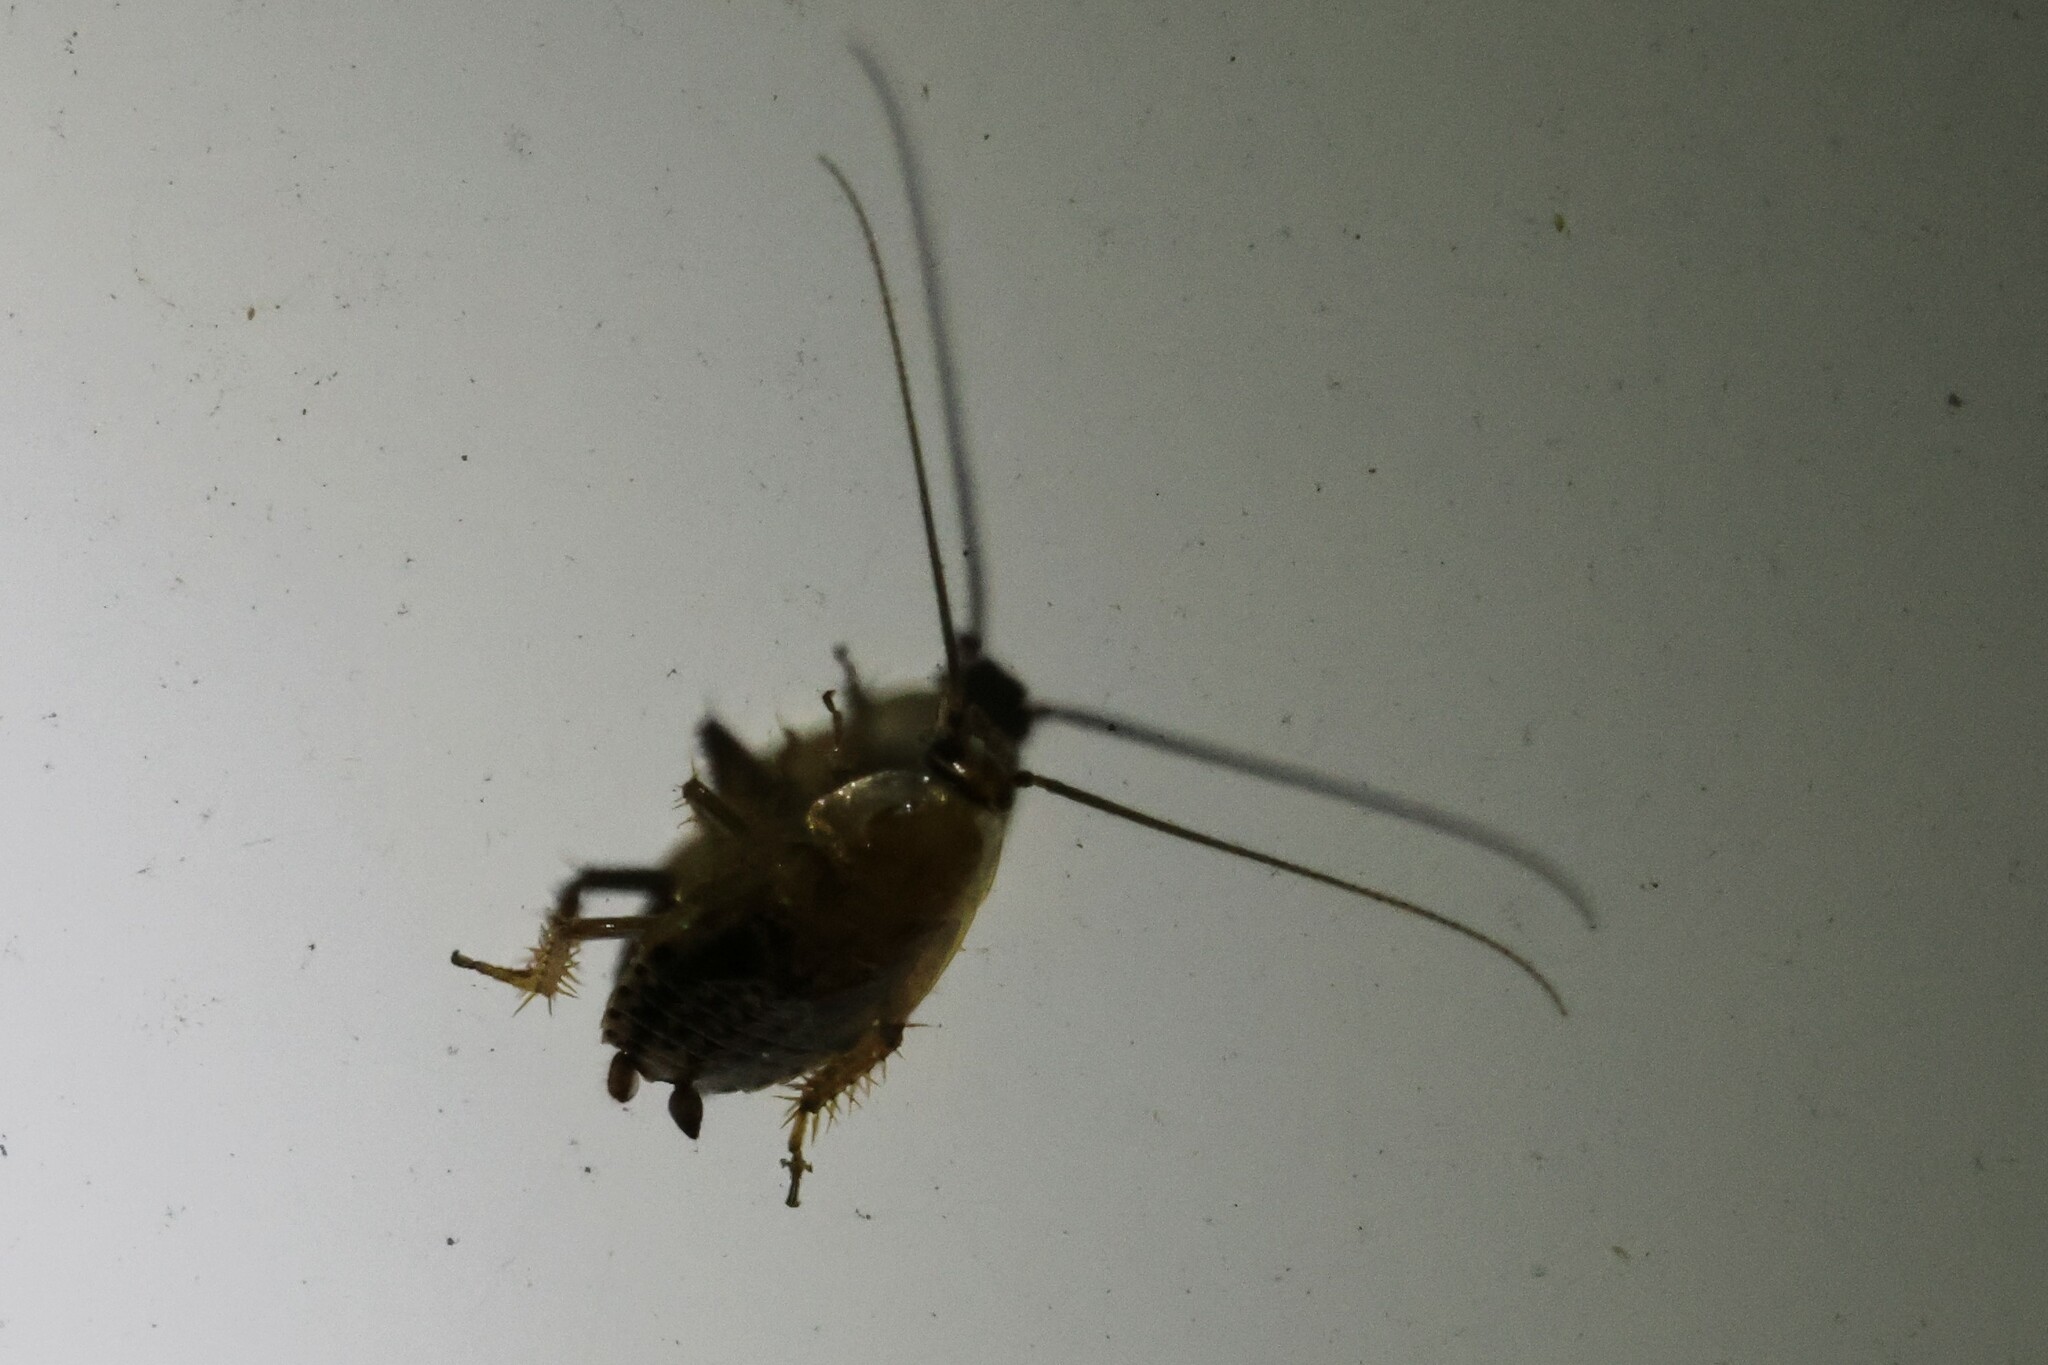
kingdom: Animalia
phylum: Arthropoda
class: Insecta
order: Blattodea
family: Ectobiidae
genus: Ectobius
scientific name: Ectobius lapponicus
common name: Dusky cockroach
